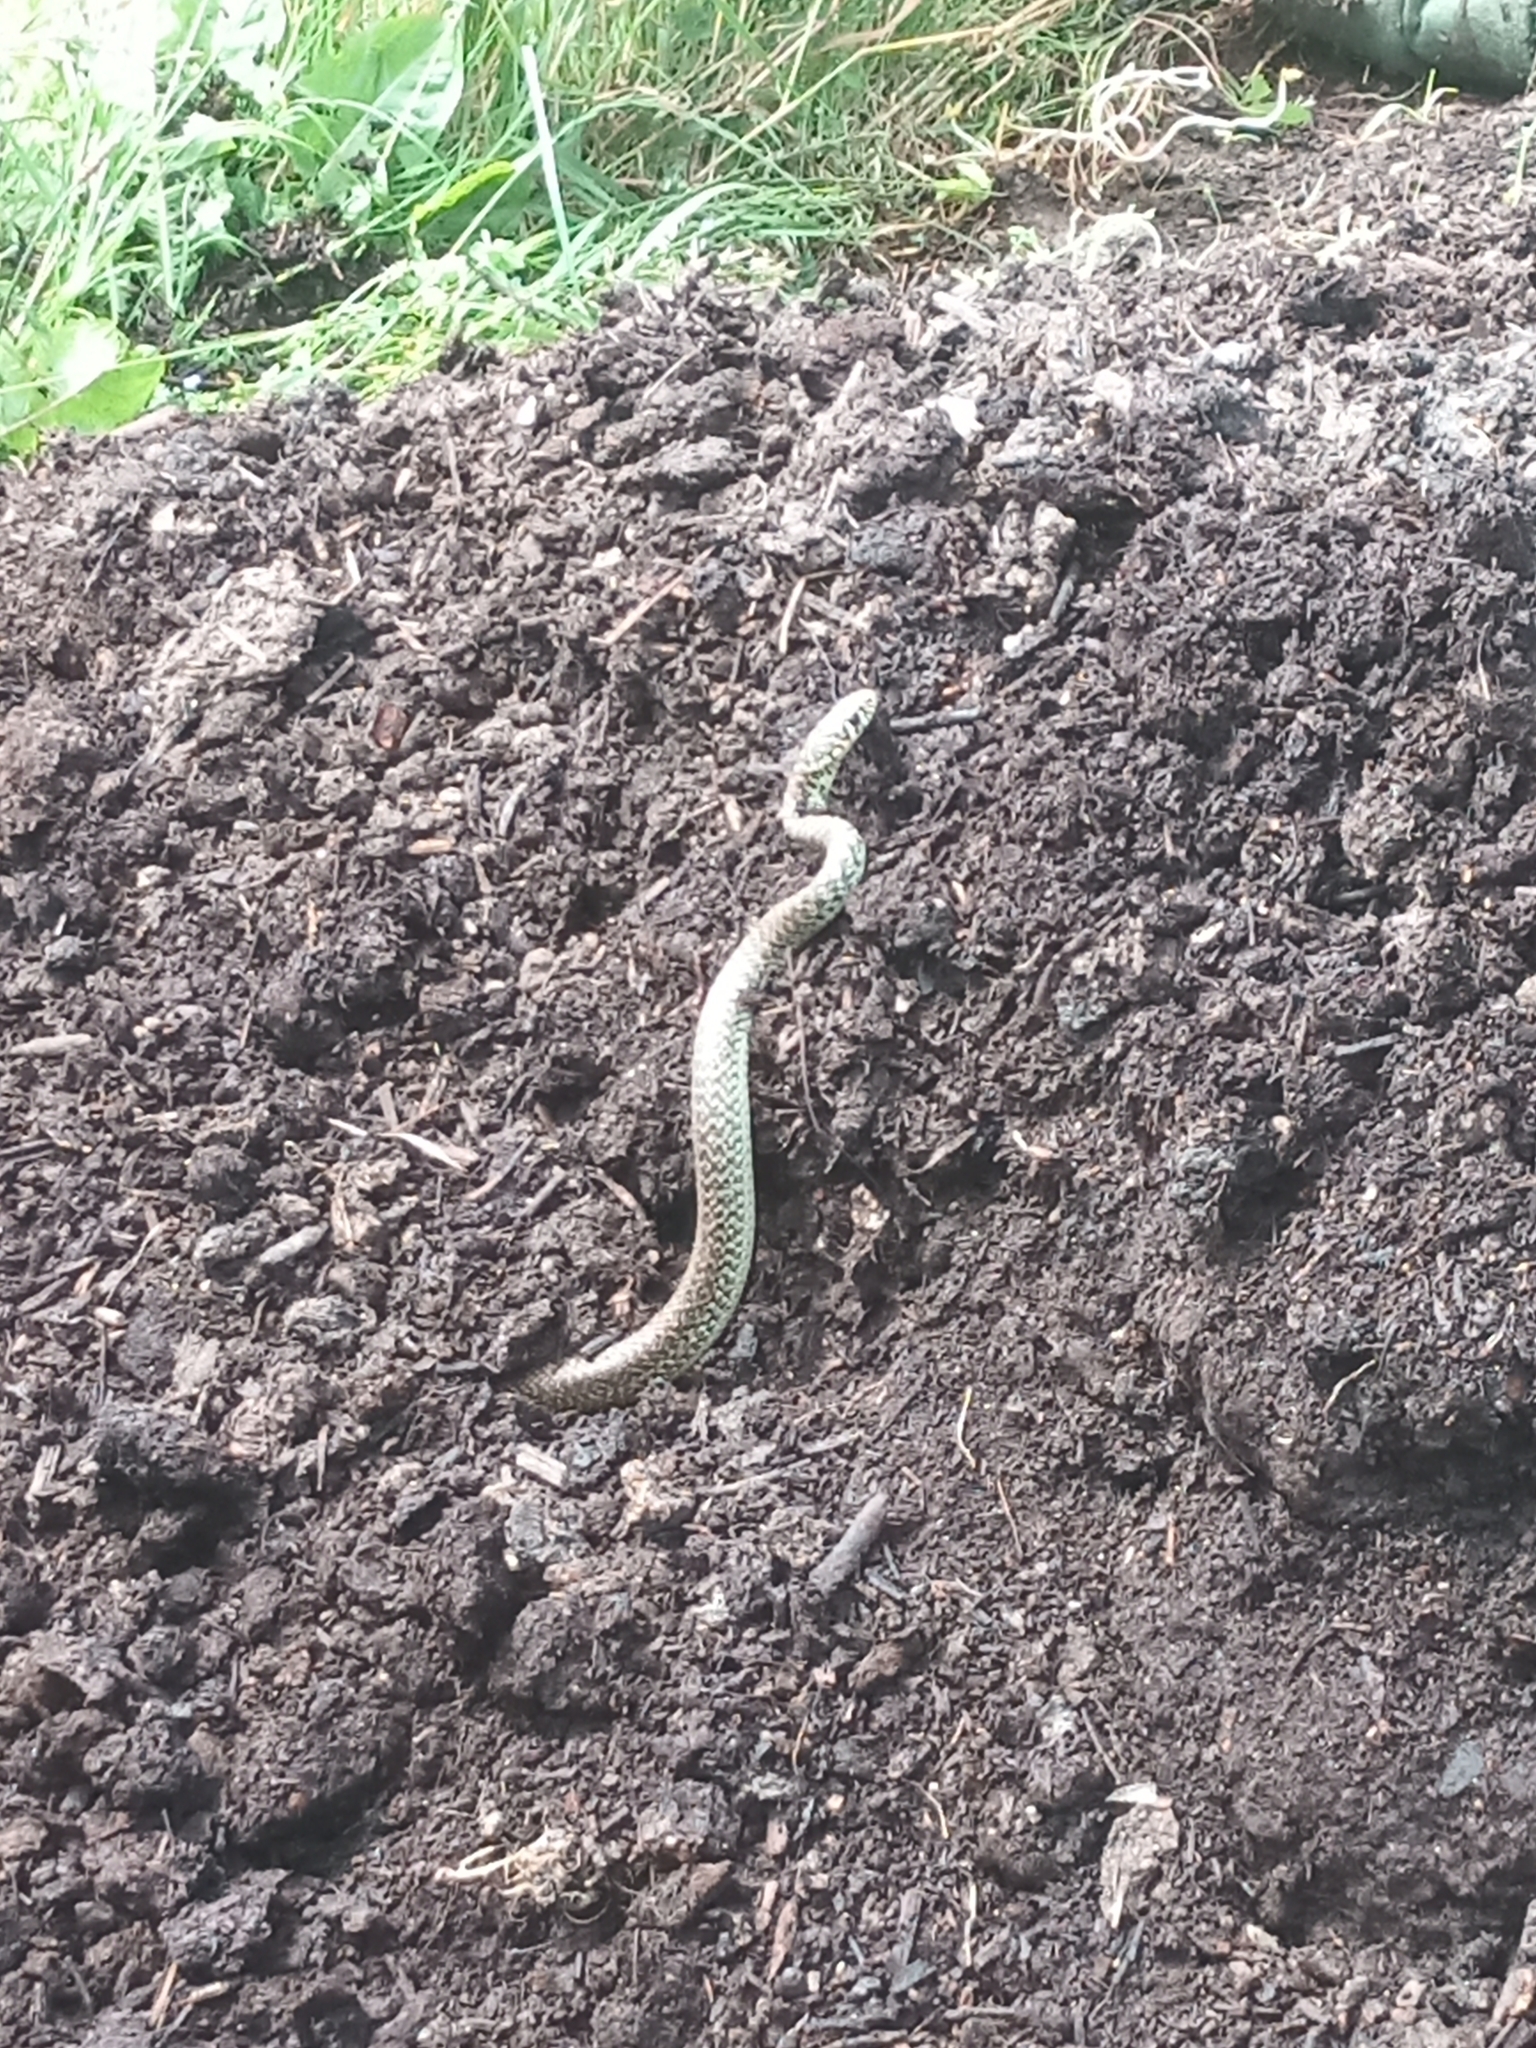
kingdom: Animalia
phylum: Chordata
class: Squamata
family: Colubridae
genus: Hierophis
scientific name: Hierophis viridiflavus
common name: Green whip snake
